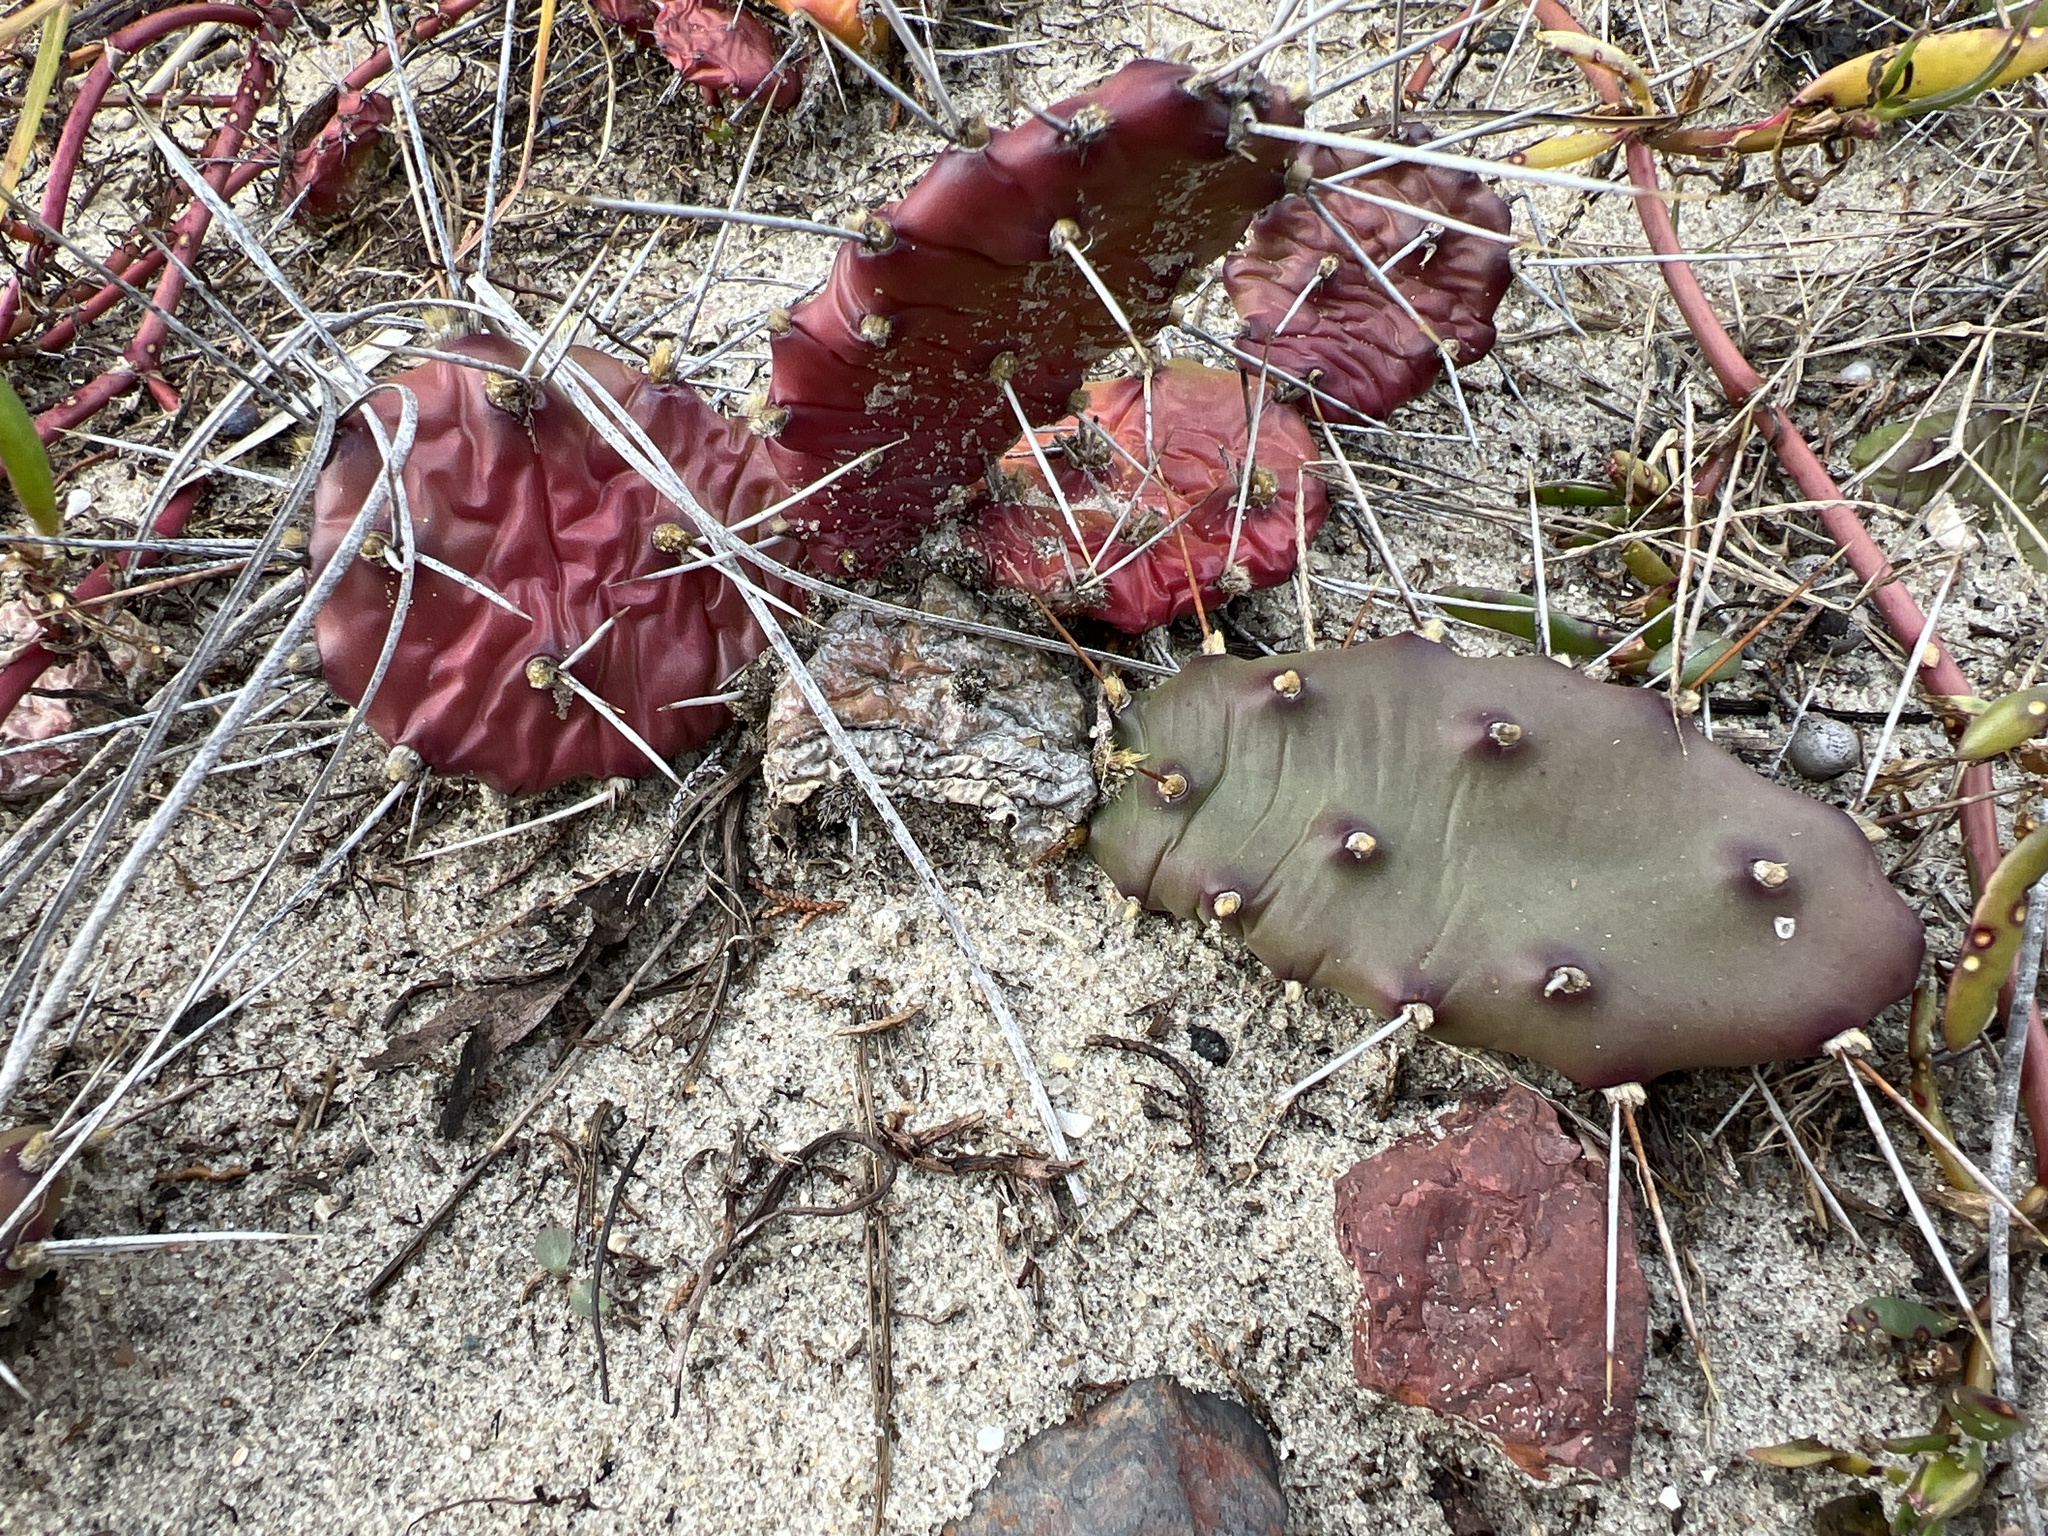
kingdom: Plantae
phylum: Tracheophyta
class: Magnoliopsida
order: Caryophyllales
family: Cactaceae
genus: Opuntia
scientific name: Opuntia drummondii
